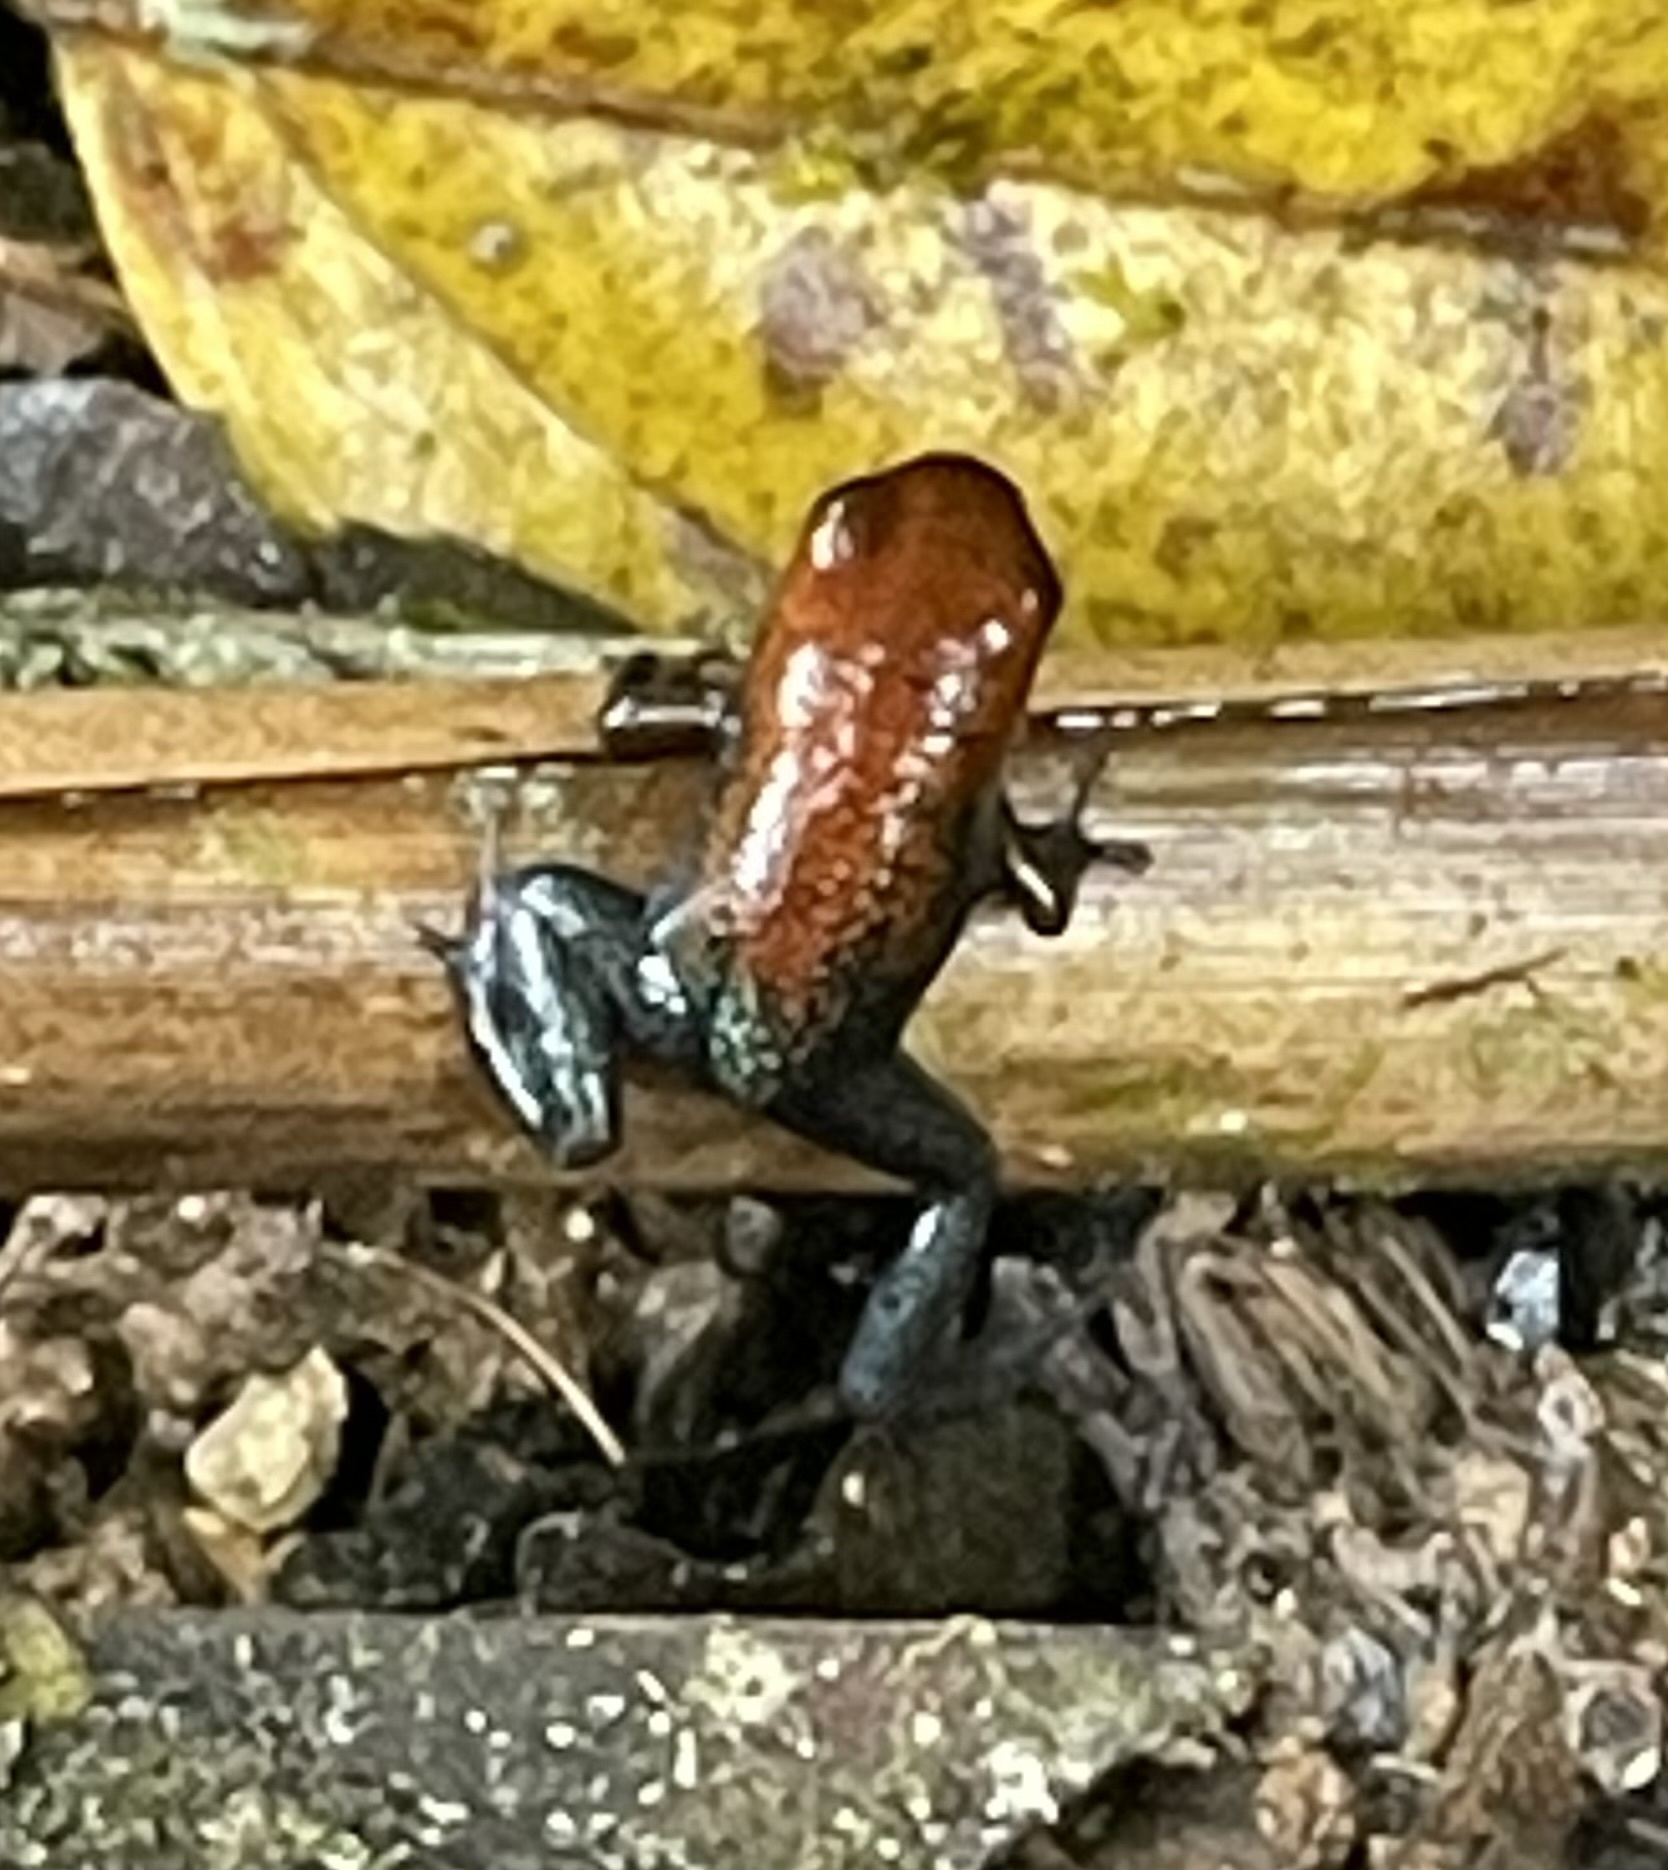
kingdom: Animalia
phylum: Chordata
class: Amphibia
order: Anura
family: Dendrobatidae
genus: Oophaga
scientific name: Oophaga pumilio
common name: Flaming poison frog
